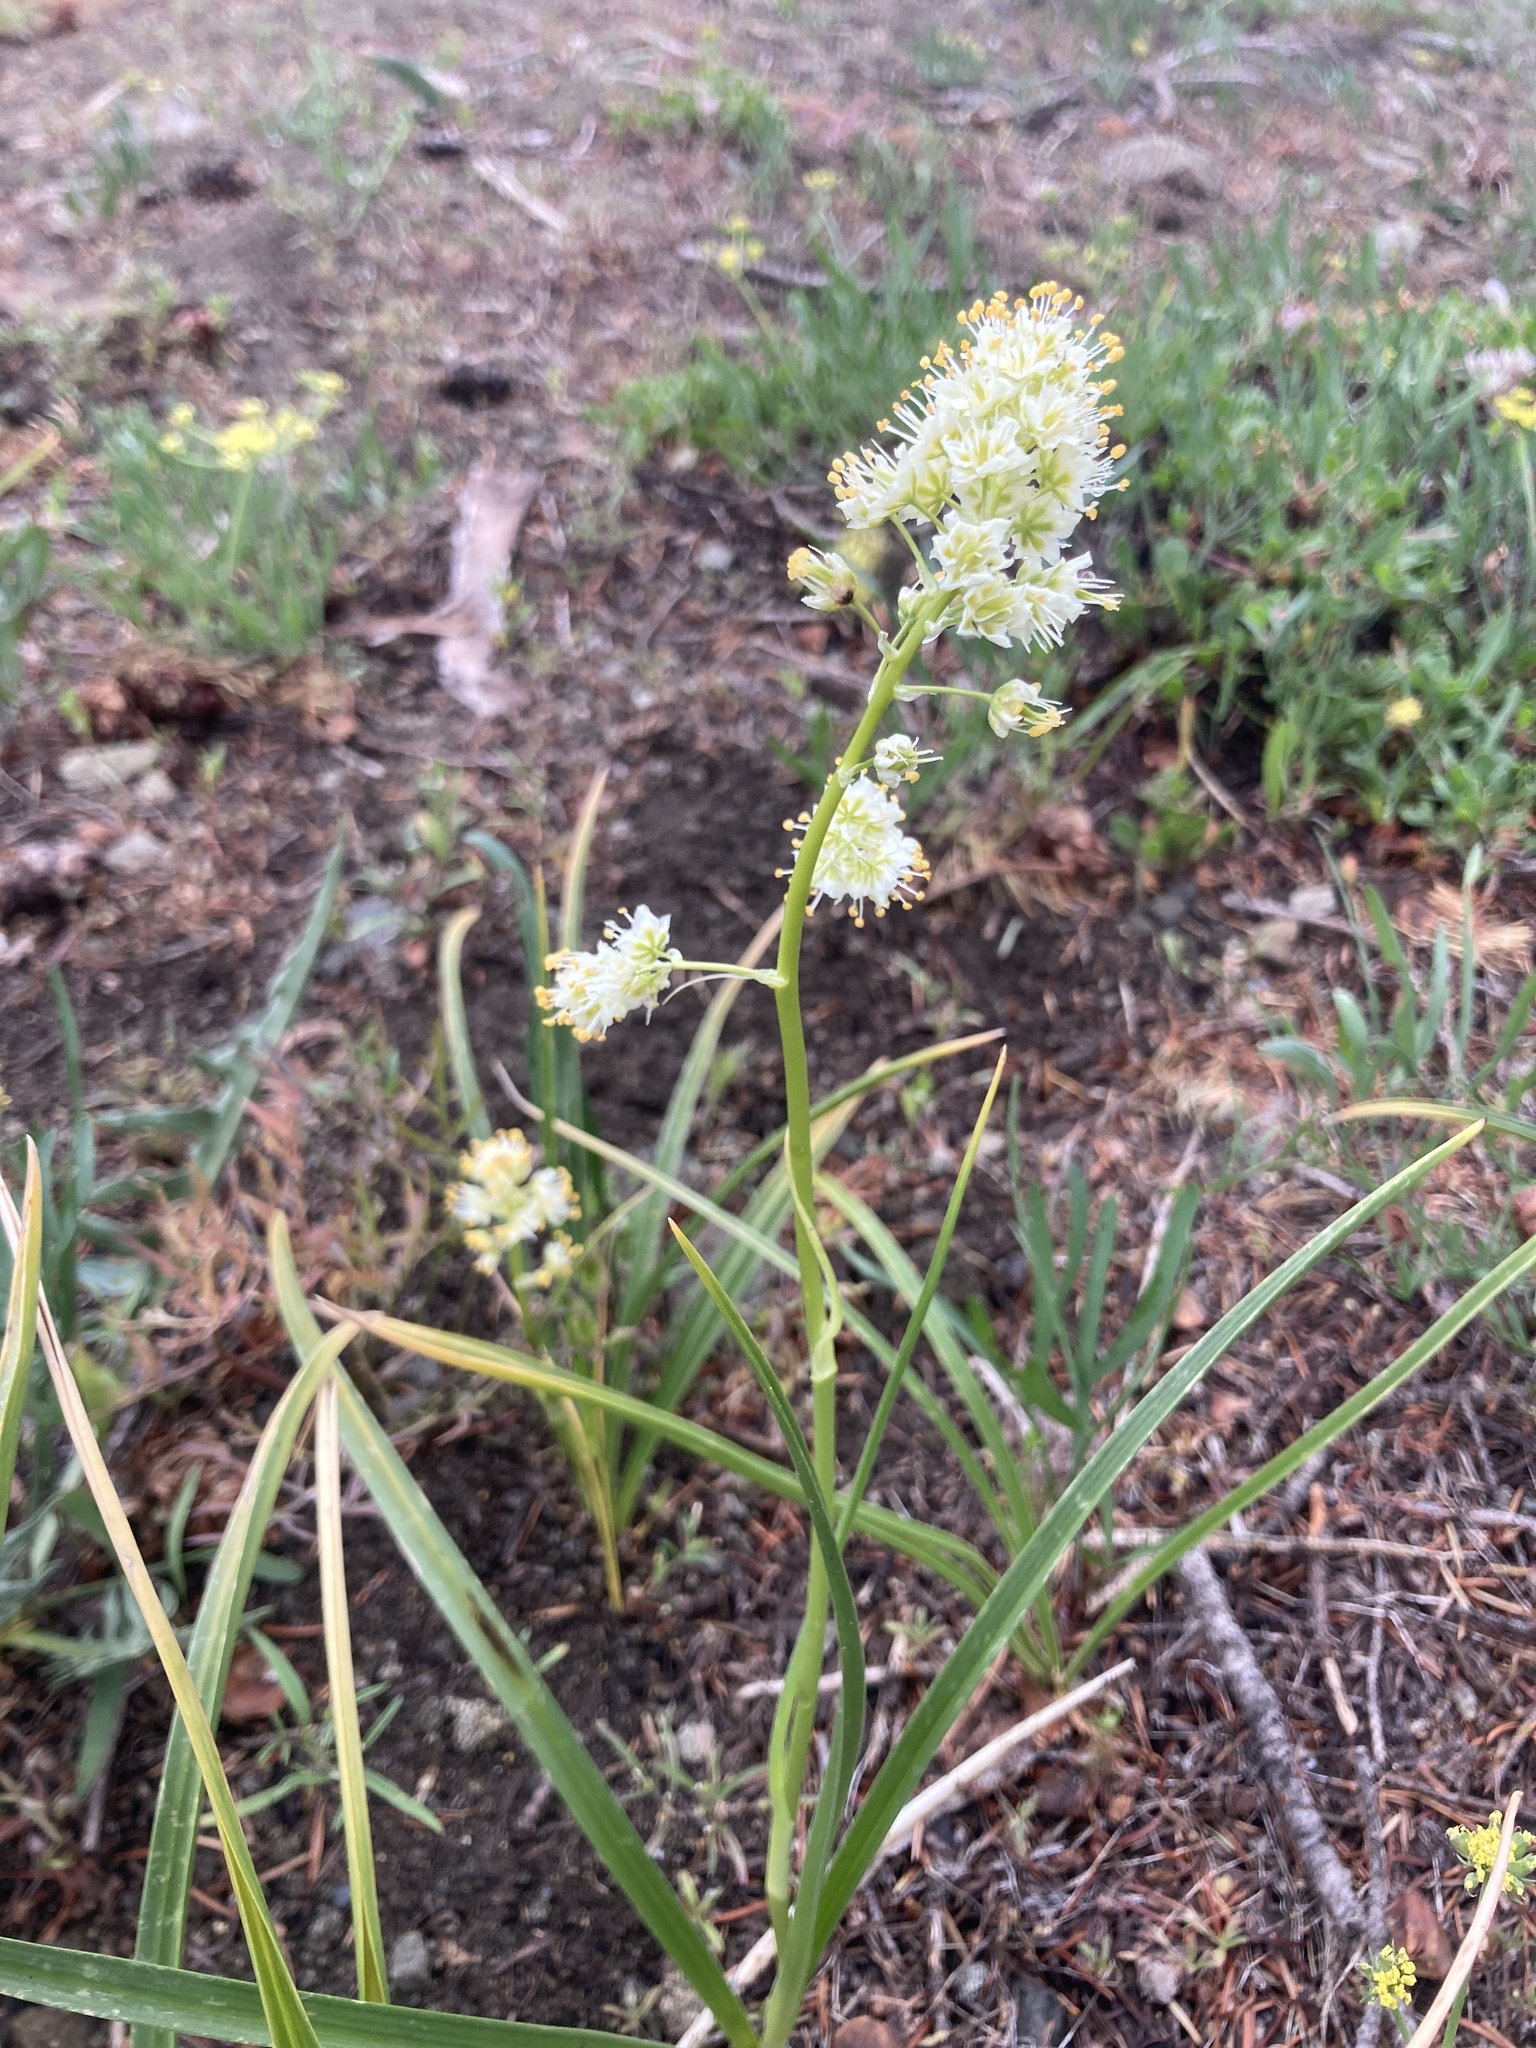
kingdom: Plantae
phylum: Tracheophyta
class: Liliopsida
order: Liliales
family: Melanthiaceae
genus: Toxicoscordion
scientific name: Toxicoscordion paniculatum
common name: Foothill death camas
